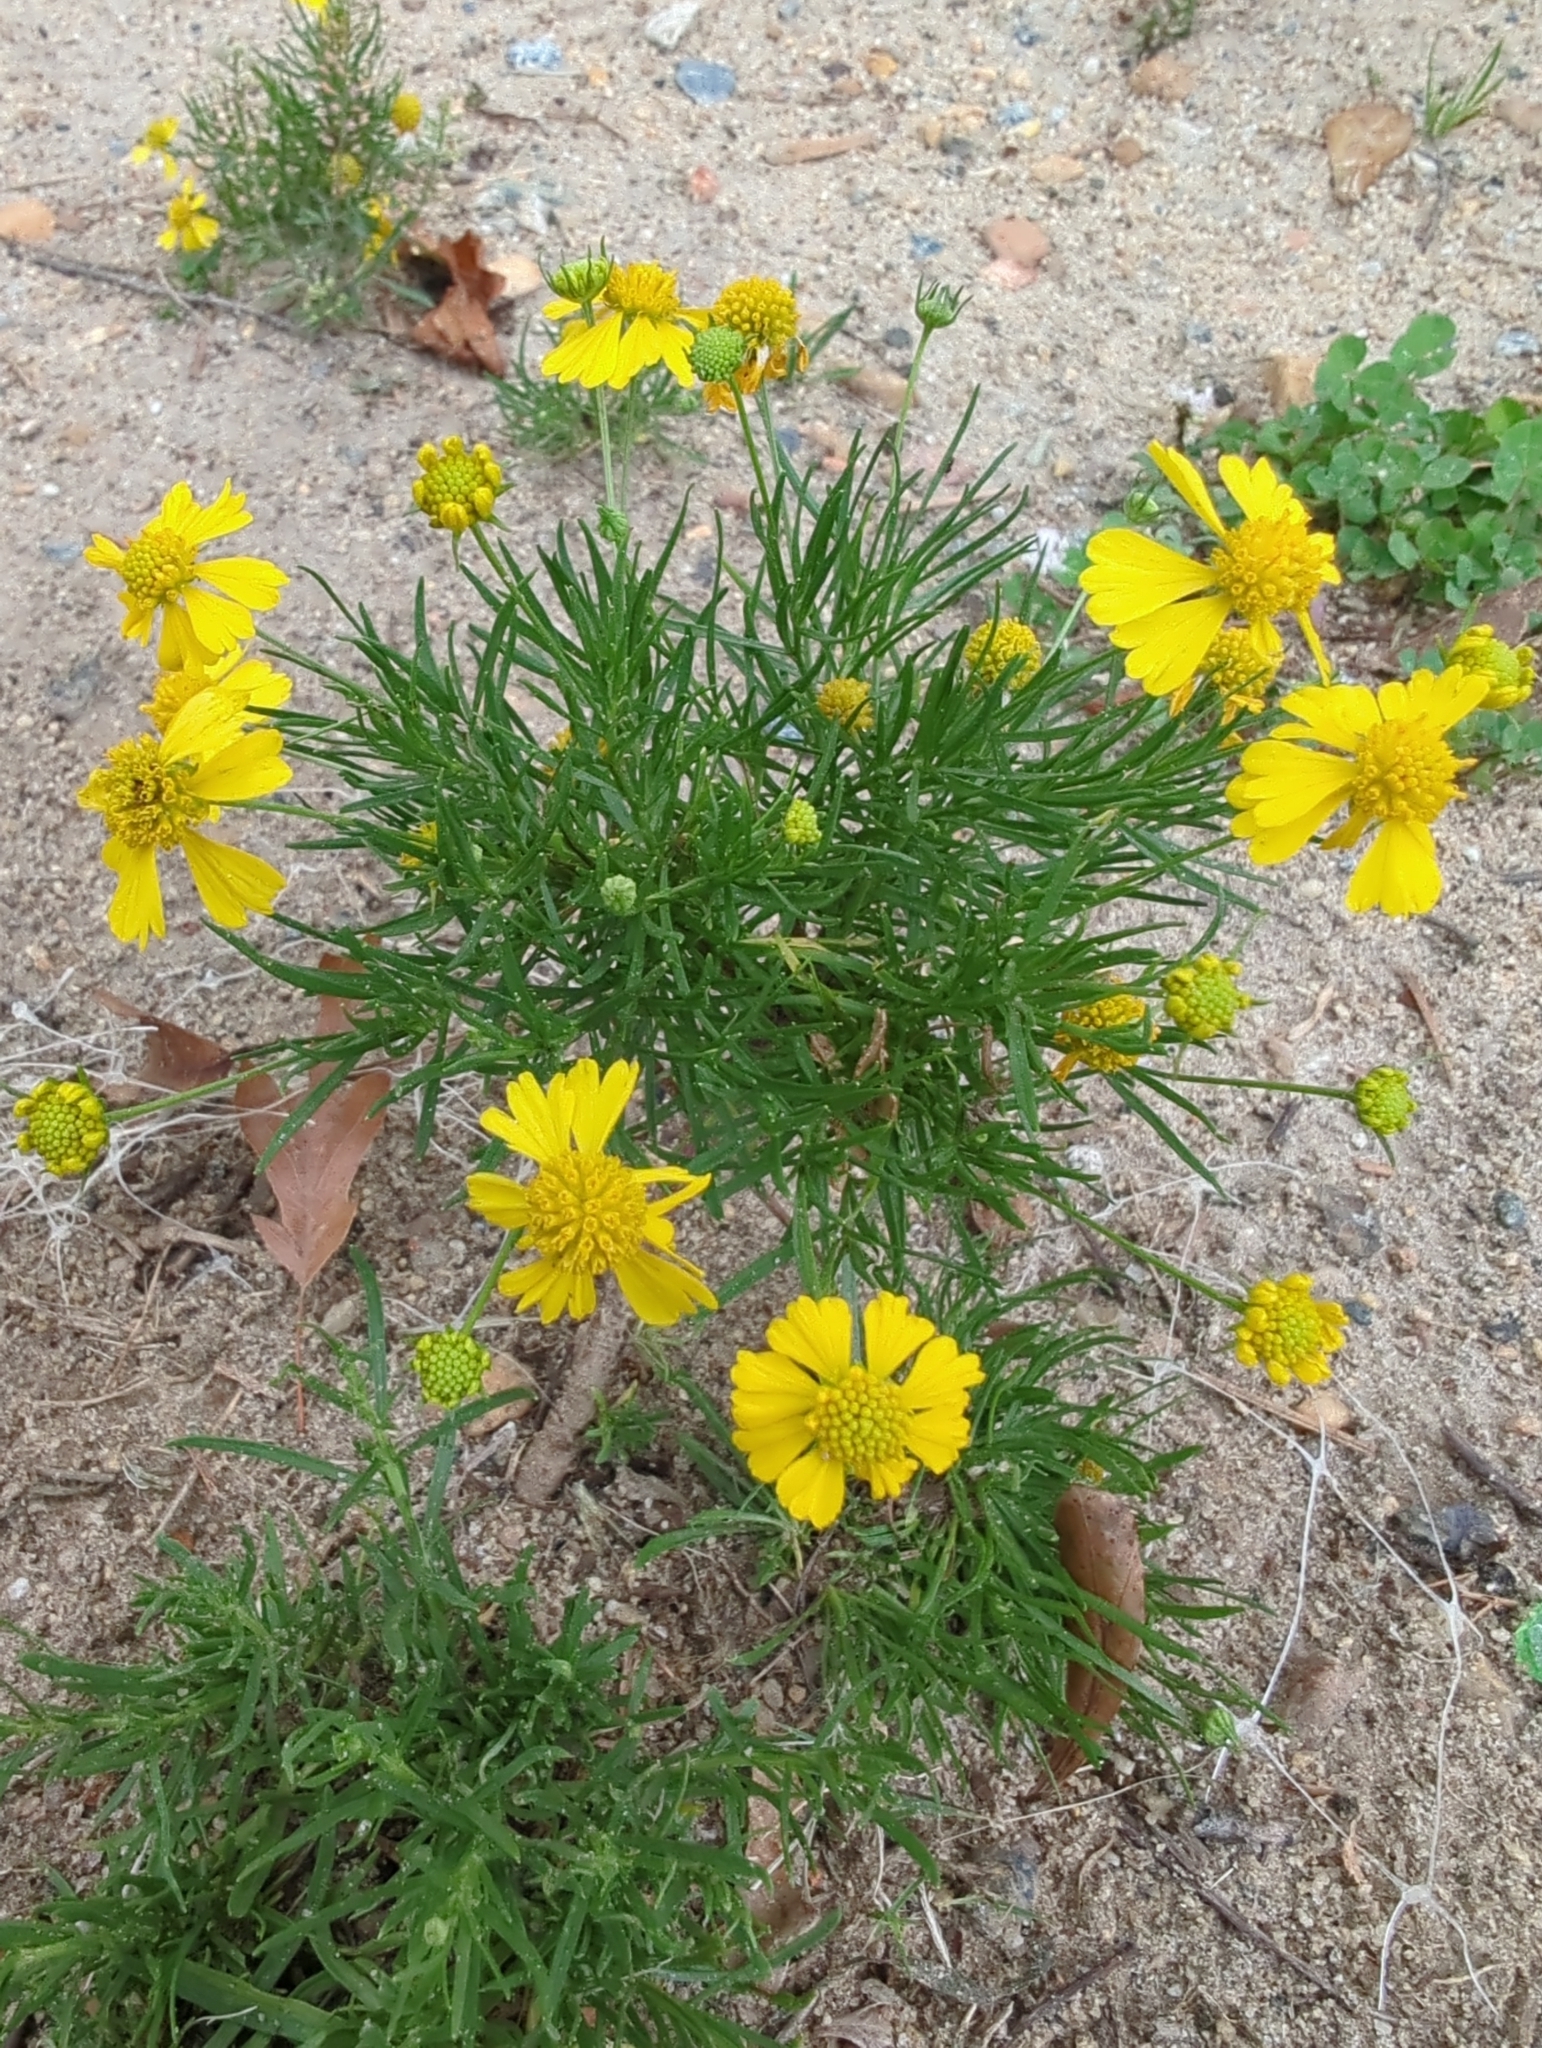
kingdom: Plantae
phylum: Tracheophyta
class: Magnoliopsida
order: Asterales
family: Asteraceae
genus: Helenium
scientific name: Helenium amarum
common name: Bitter sneezeweed
